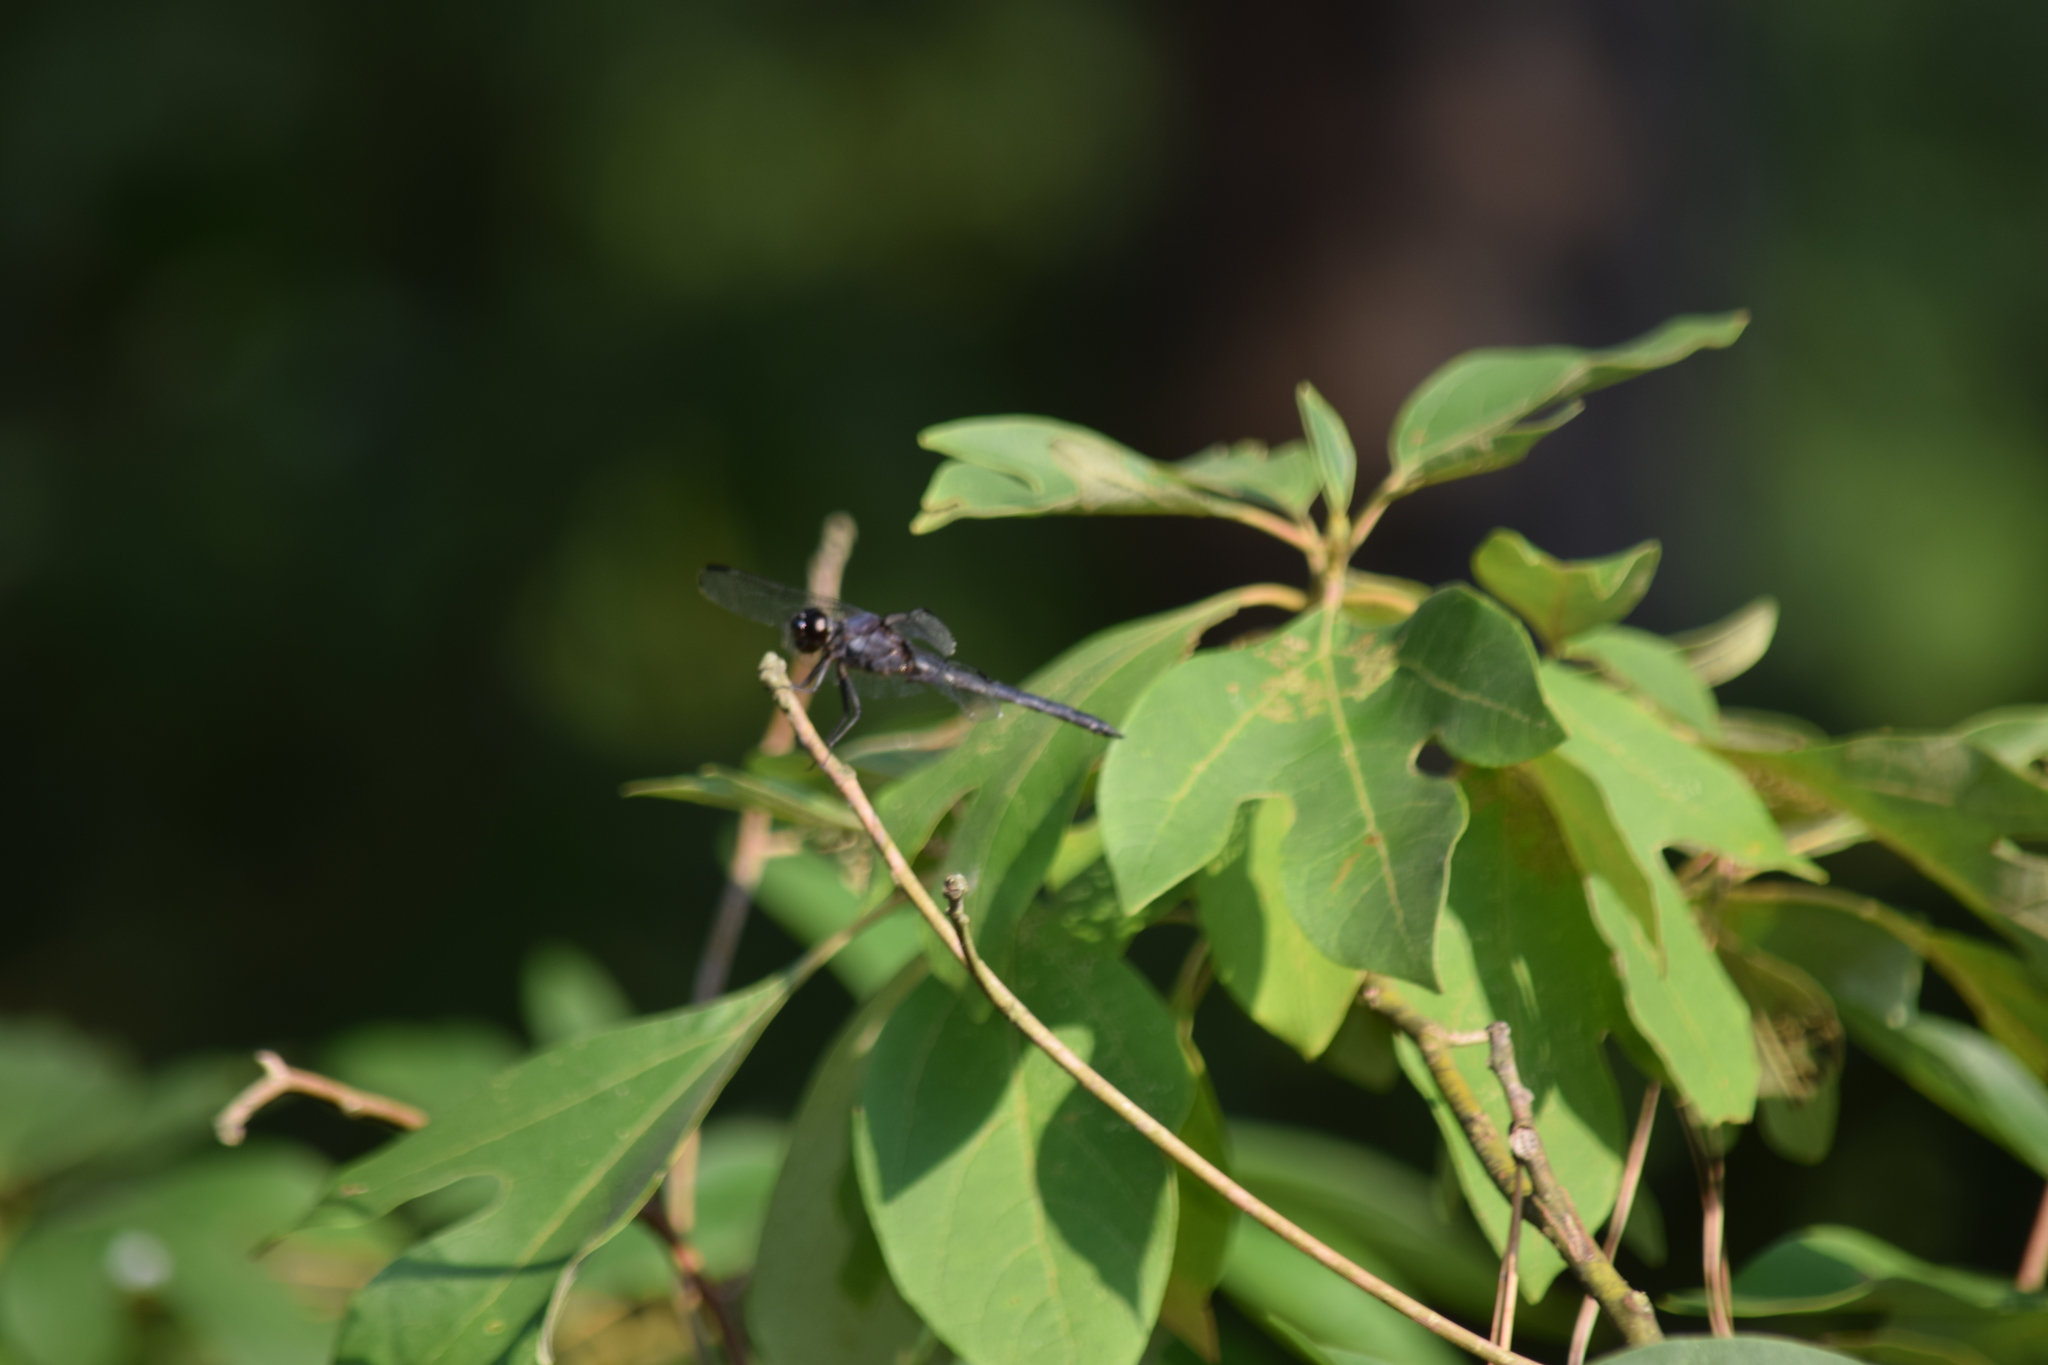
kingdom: Animalia
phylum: Arthropoda
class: Insecta
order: Odonata
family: Libellulidae
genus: Libellula
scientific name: Libellula incesta
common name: Slaty skimmer
